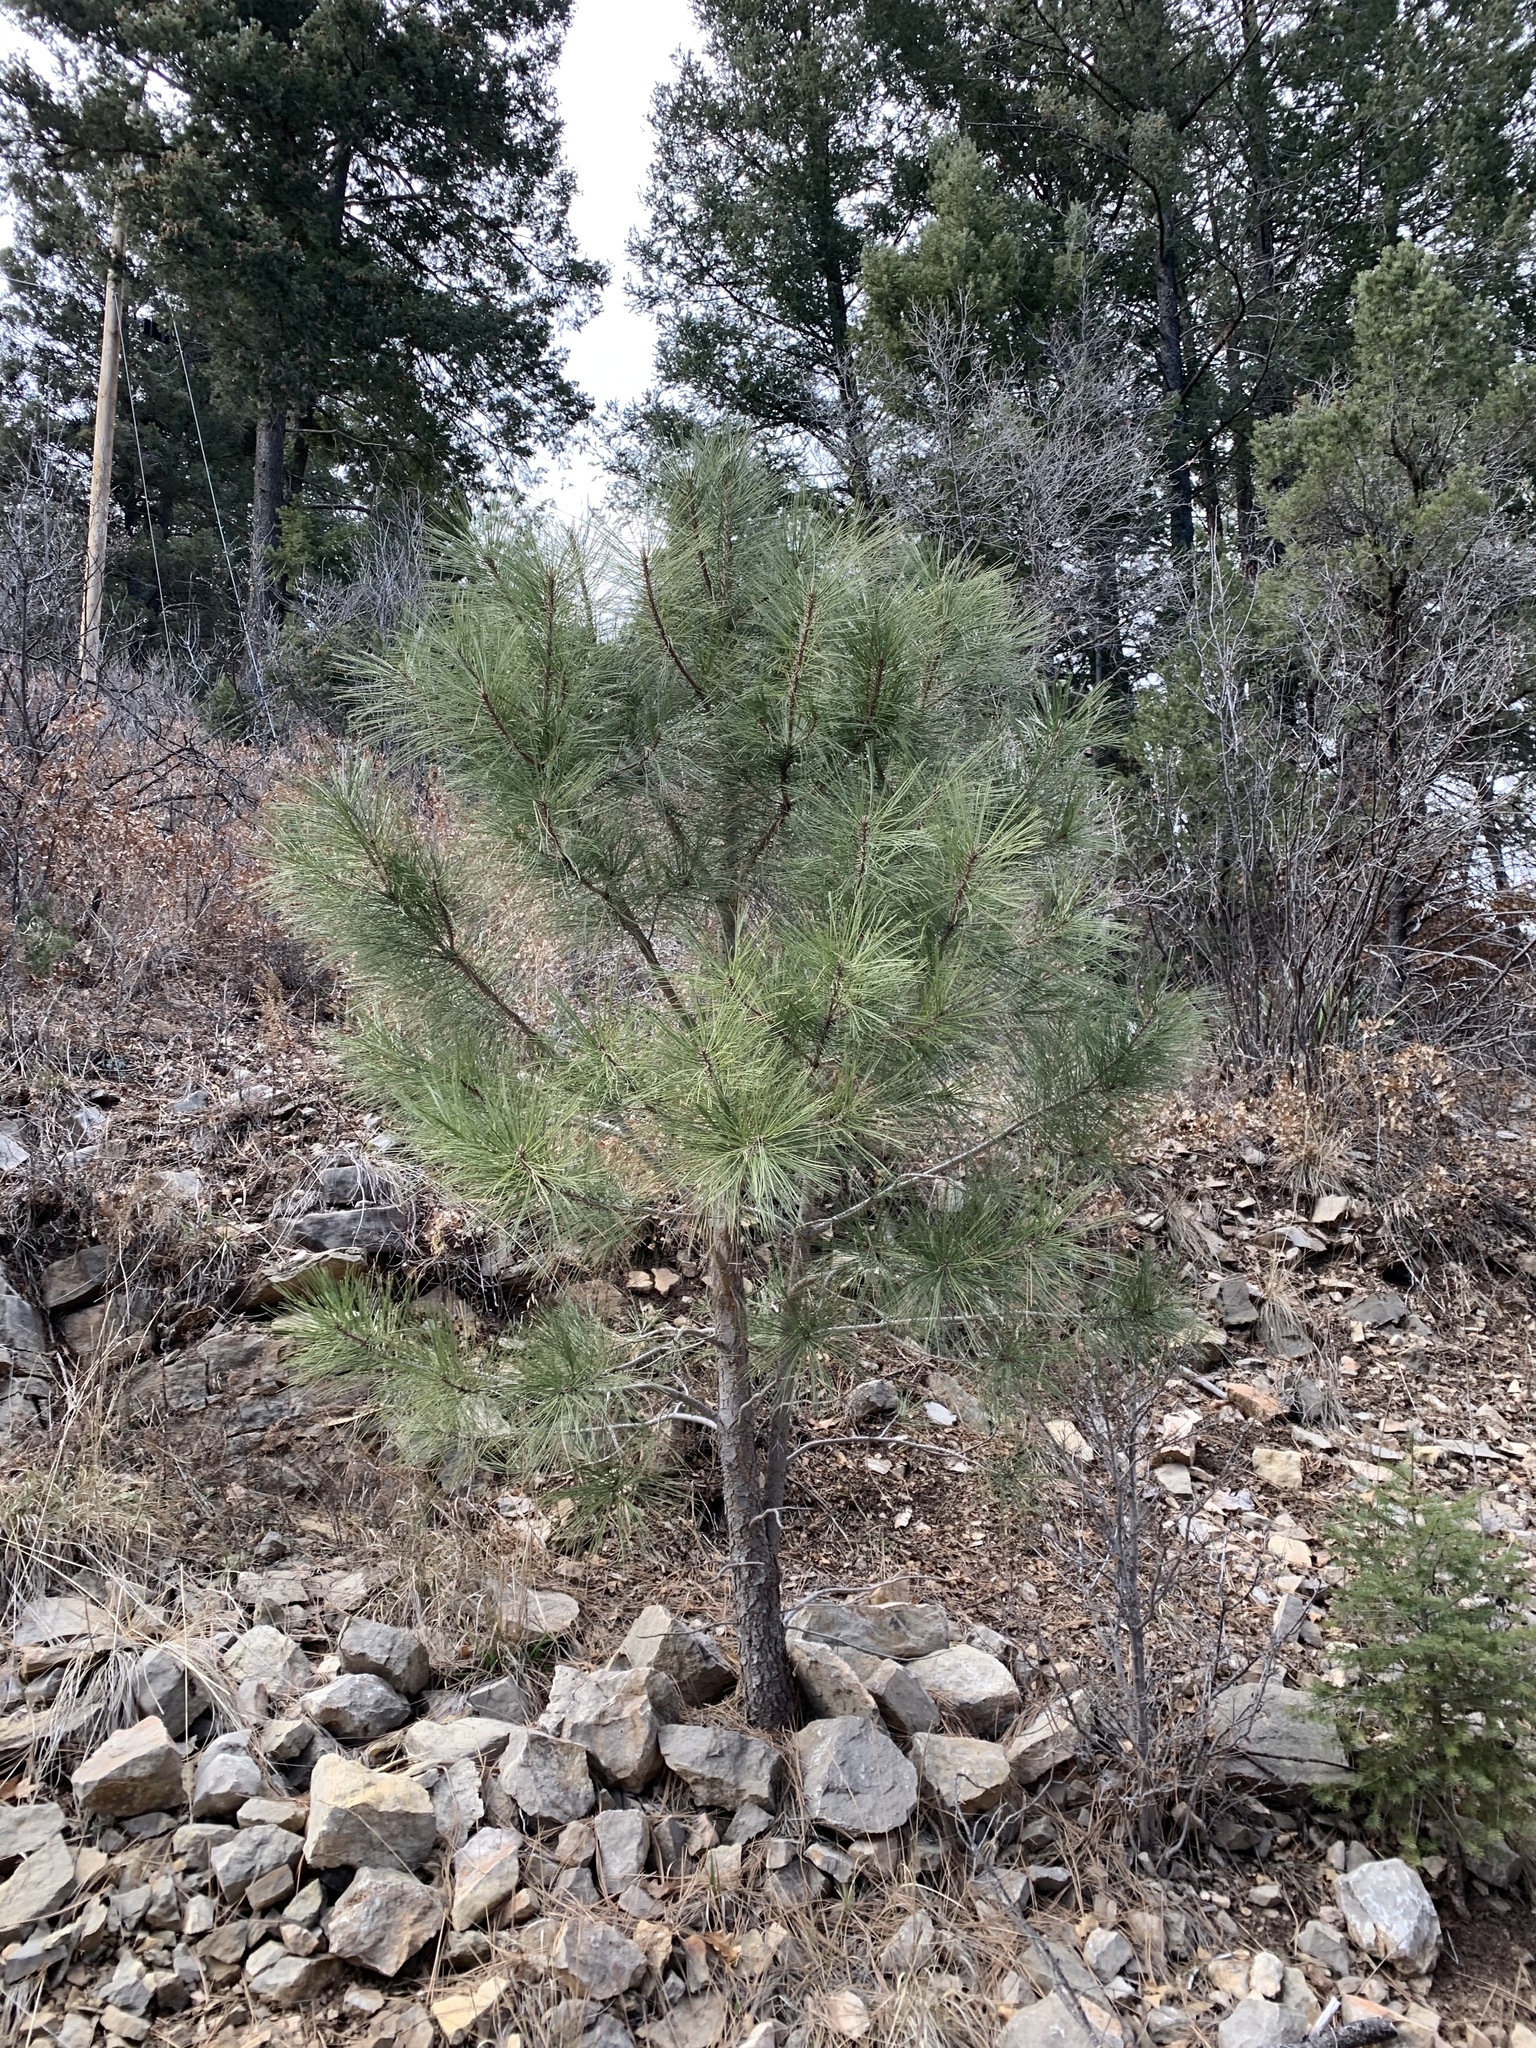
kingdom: Plantae
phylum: Tracheophyta
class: Pinopsida
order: Pinales
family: Pinaceae
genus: Pinus
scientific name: Pinus ponderosa
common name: Western yellow-pine
